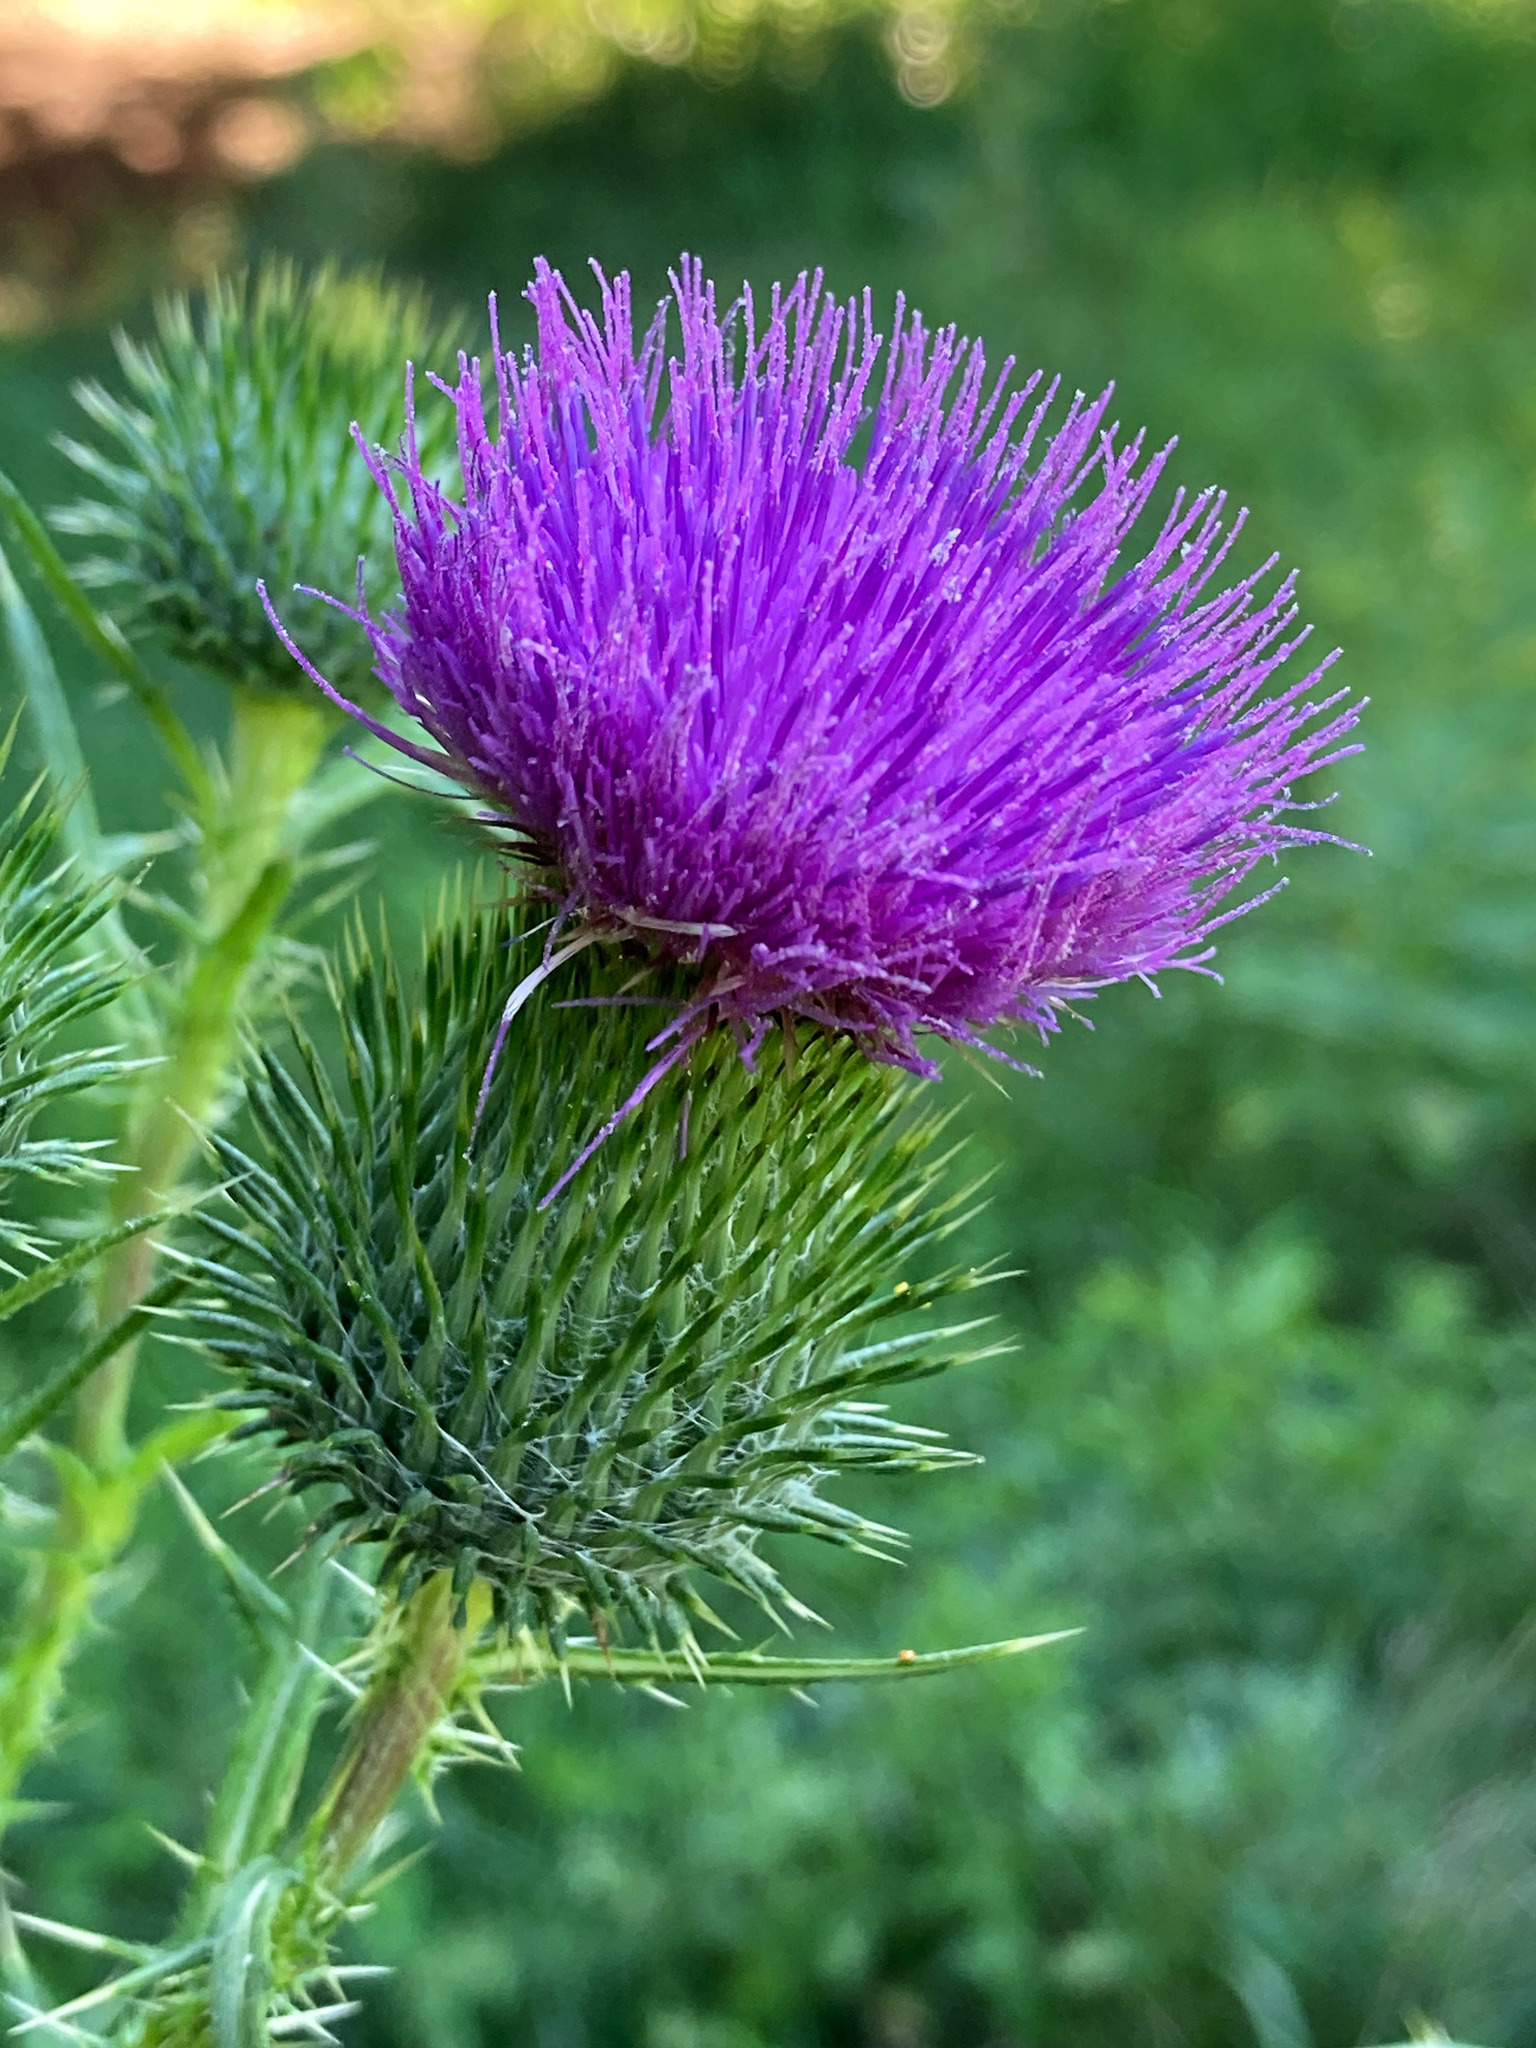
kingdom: Plantae
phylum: Tracheophyta
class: Magnoliopsida
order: Asterales
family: Asteraceae
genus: Cirsium
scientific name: Cirsium vulgare
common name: Bull thistle
